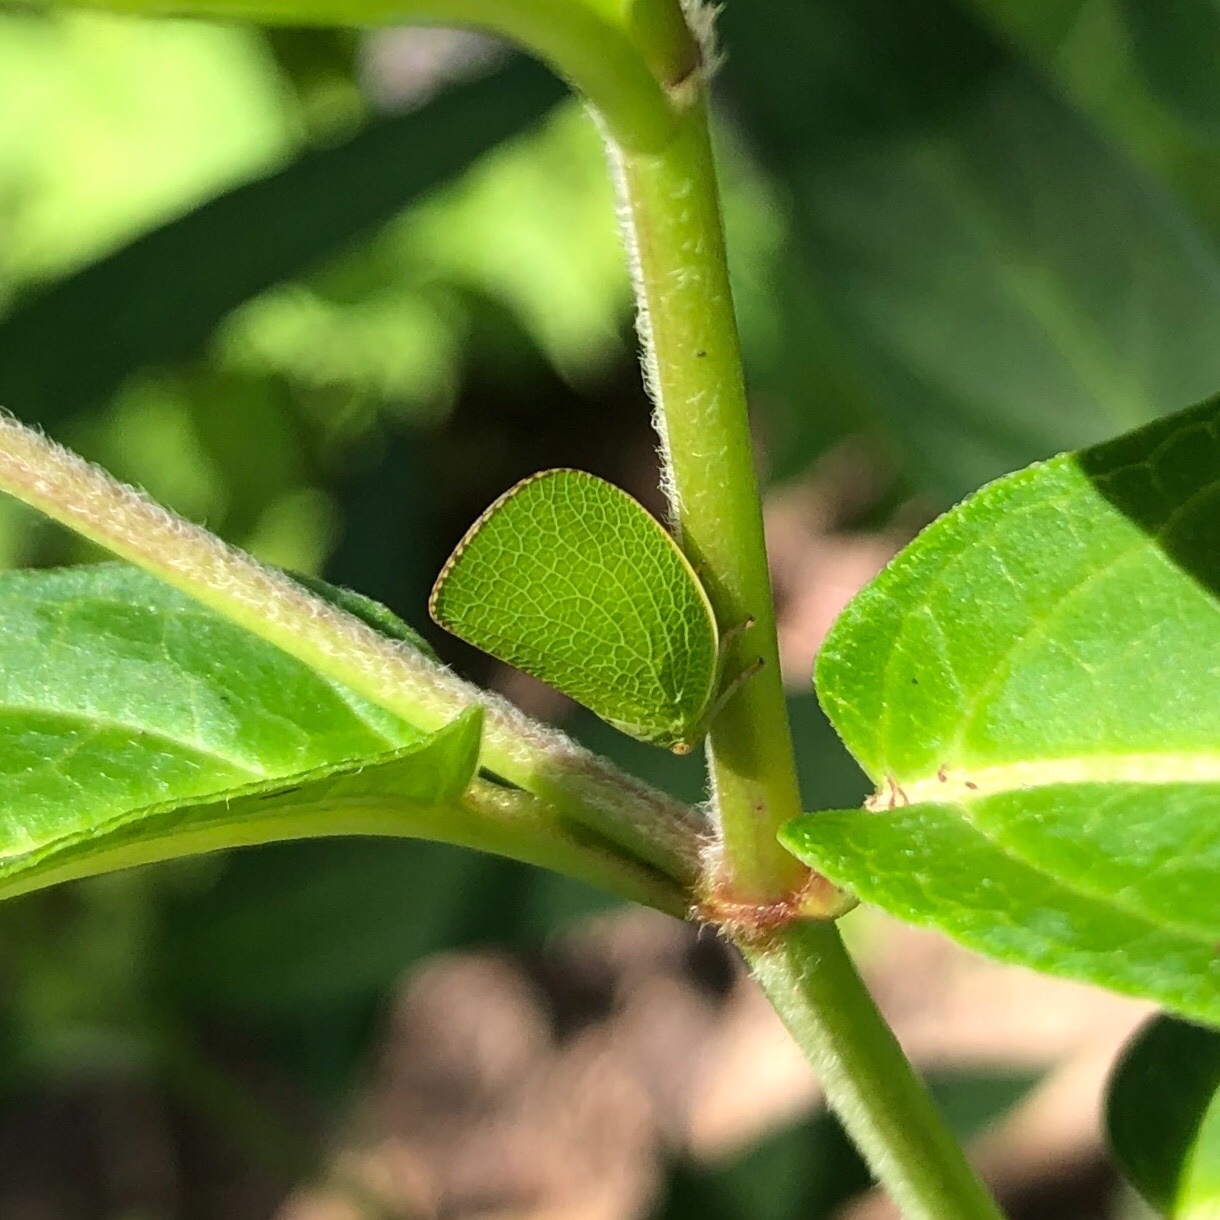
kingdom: Animalia
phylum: Arthropoda
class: Insecta
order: Hemiptera
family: Acanaloniidae
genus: Acanalonia
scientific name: Acanalonia conica
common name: Green cone-headed planthopper
